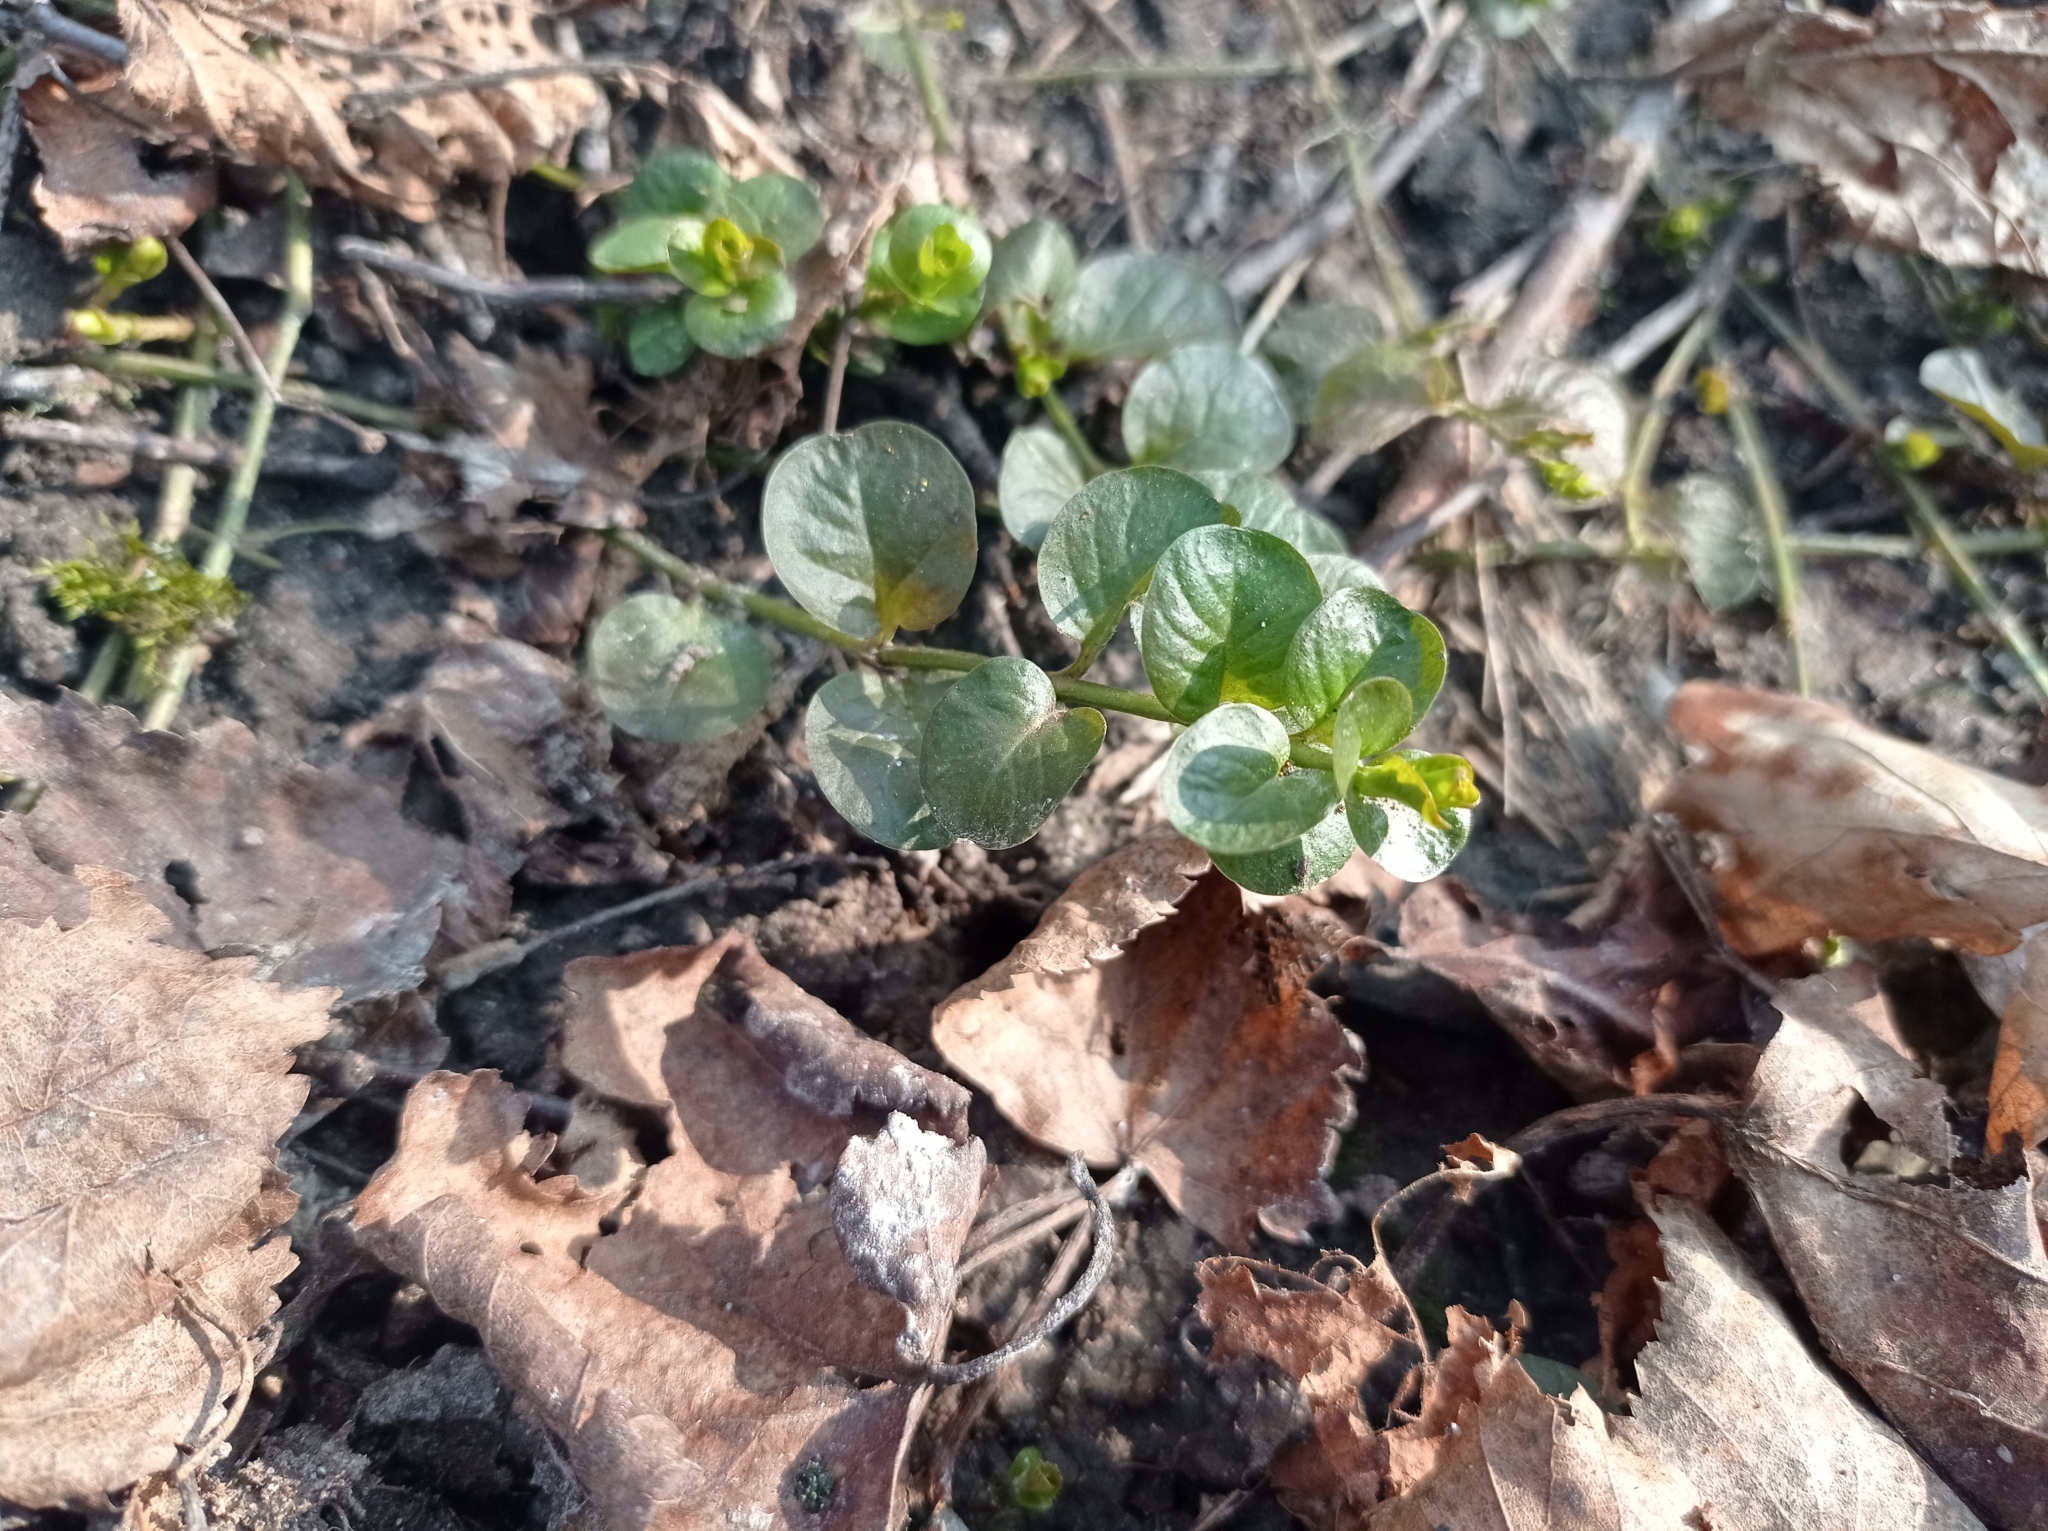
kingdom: Plantae
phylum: Tracheophyta
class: Magnoliopsida
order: Ericales
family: Primulaceae
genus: Lysimachia
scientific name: Lysimachia nummularia
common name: Moneywort
